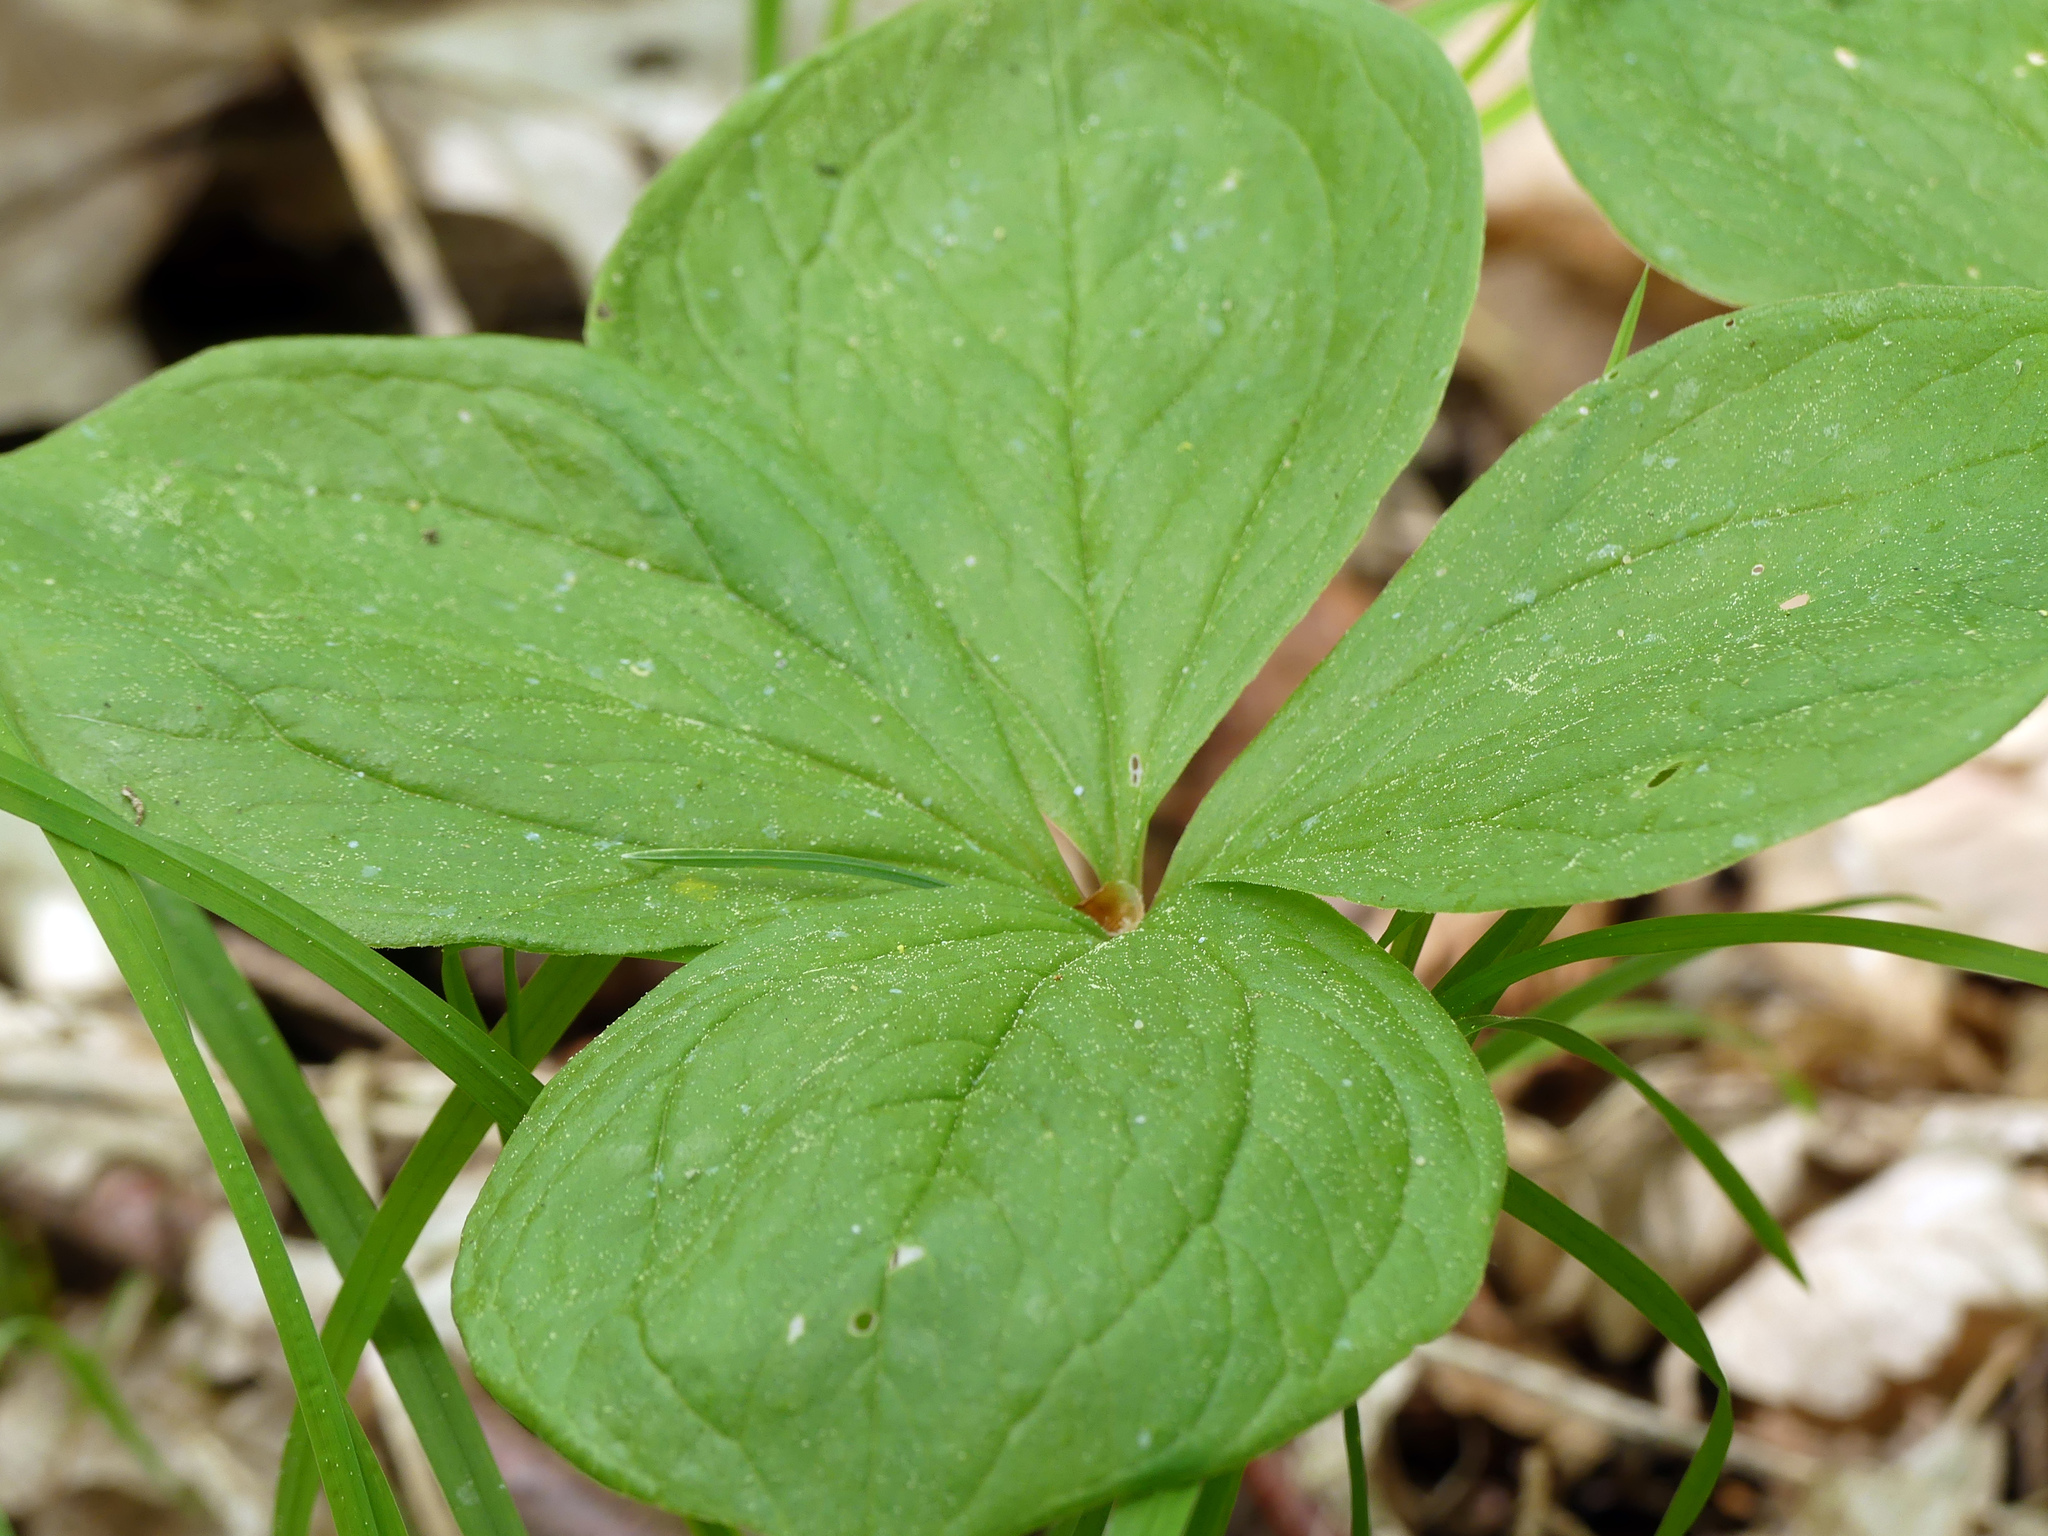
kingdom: Plantae
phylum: Tracheophyta
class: Liliopsida
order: Liliales
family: Melanthiaceae
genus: Paris
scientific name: Paris quadrifolia
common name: Herb-paris
